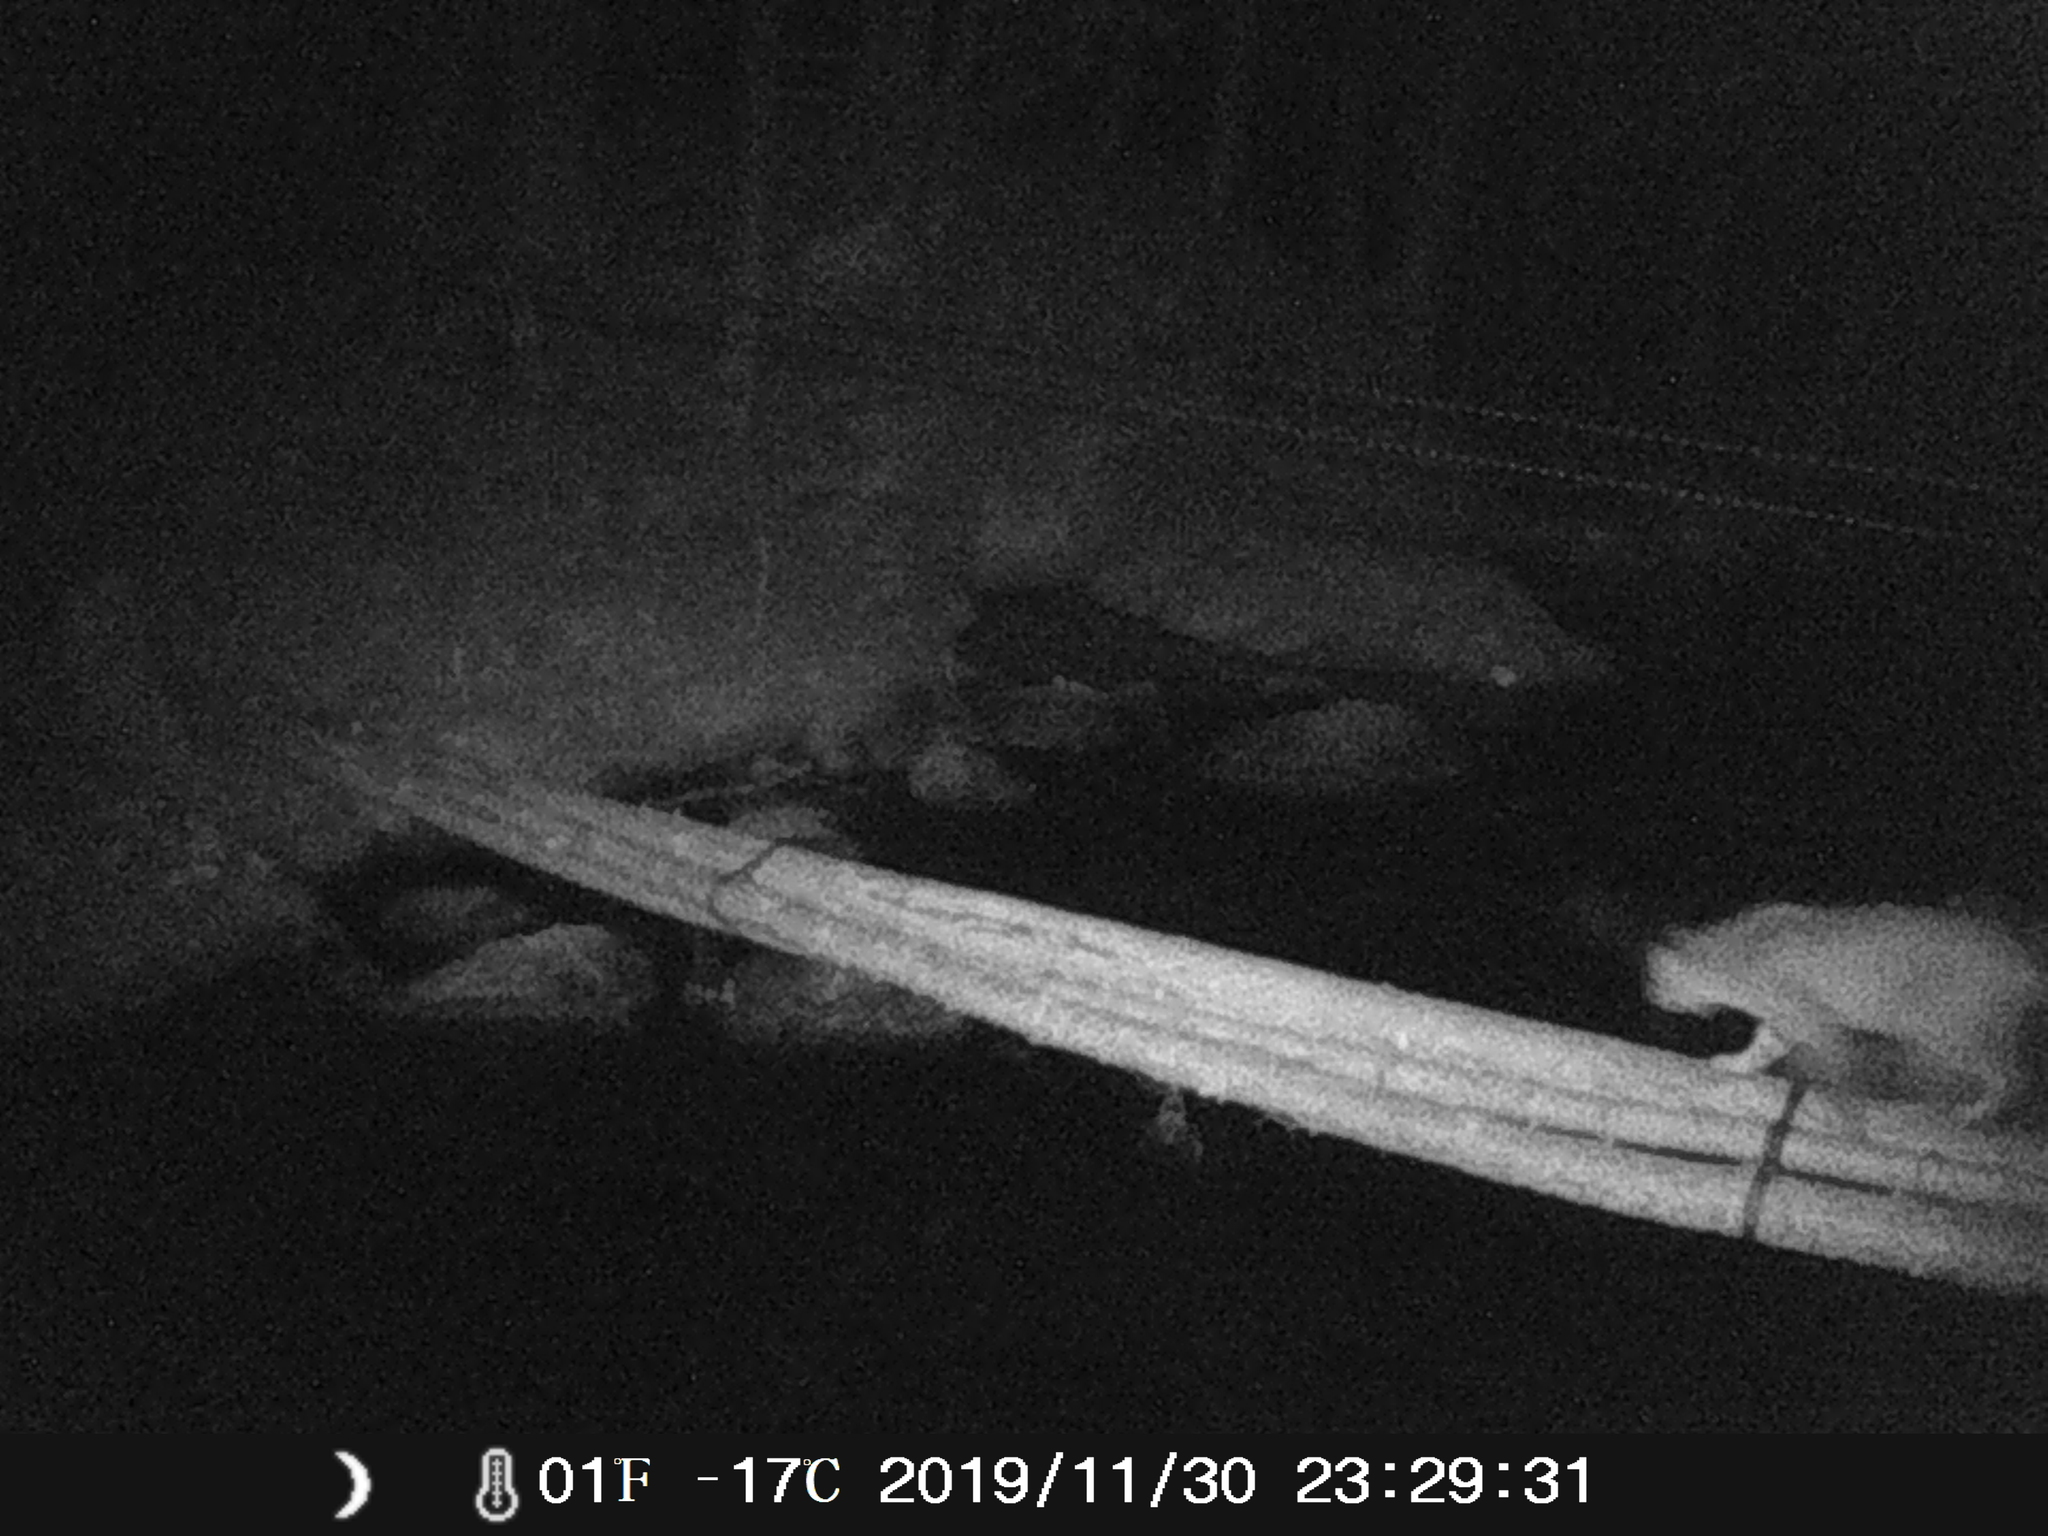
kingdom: Animalia
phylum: Chordata
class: Mammalia
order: Carnivora
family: Felidae
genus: Lynx
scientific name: Lynx rufus
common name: Bobcat
